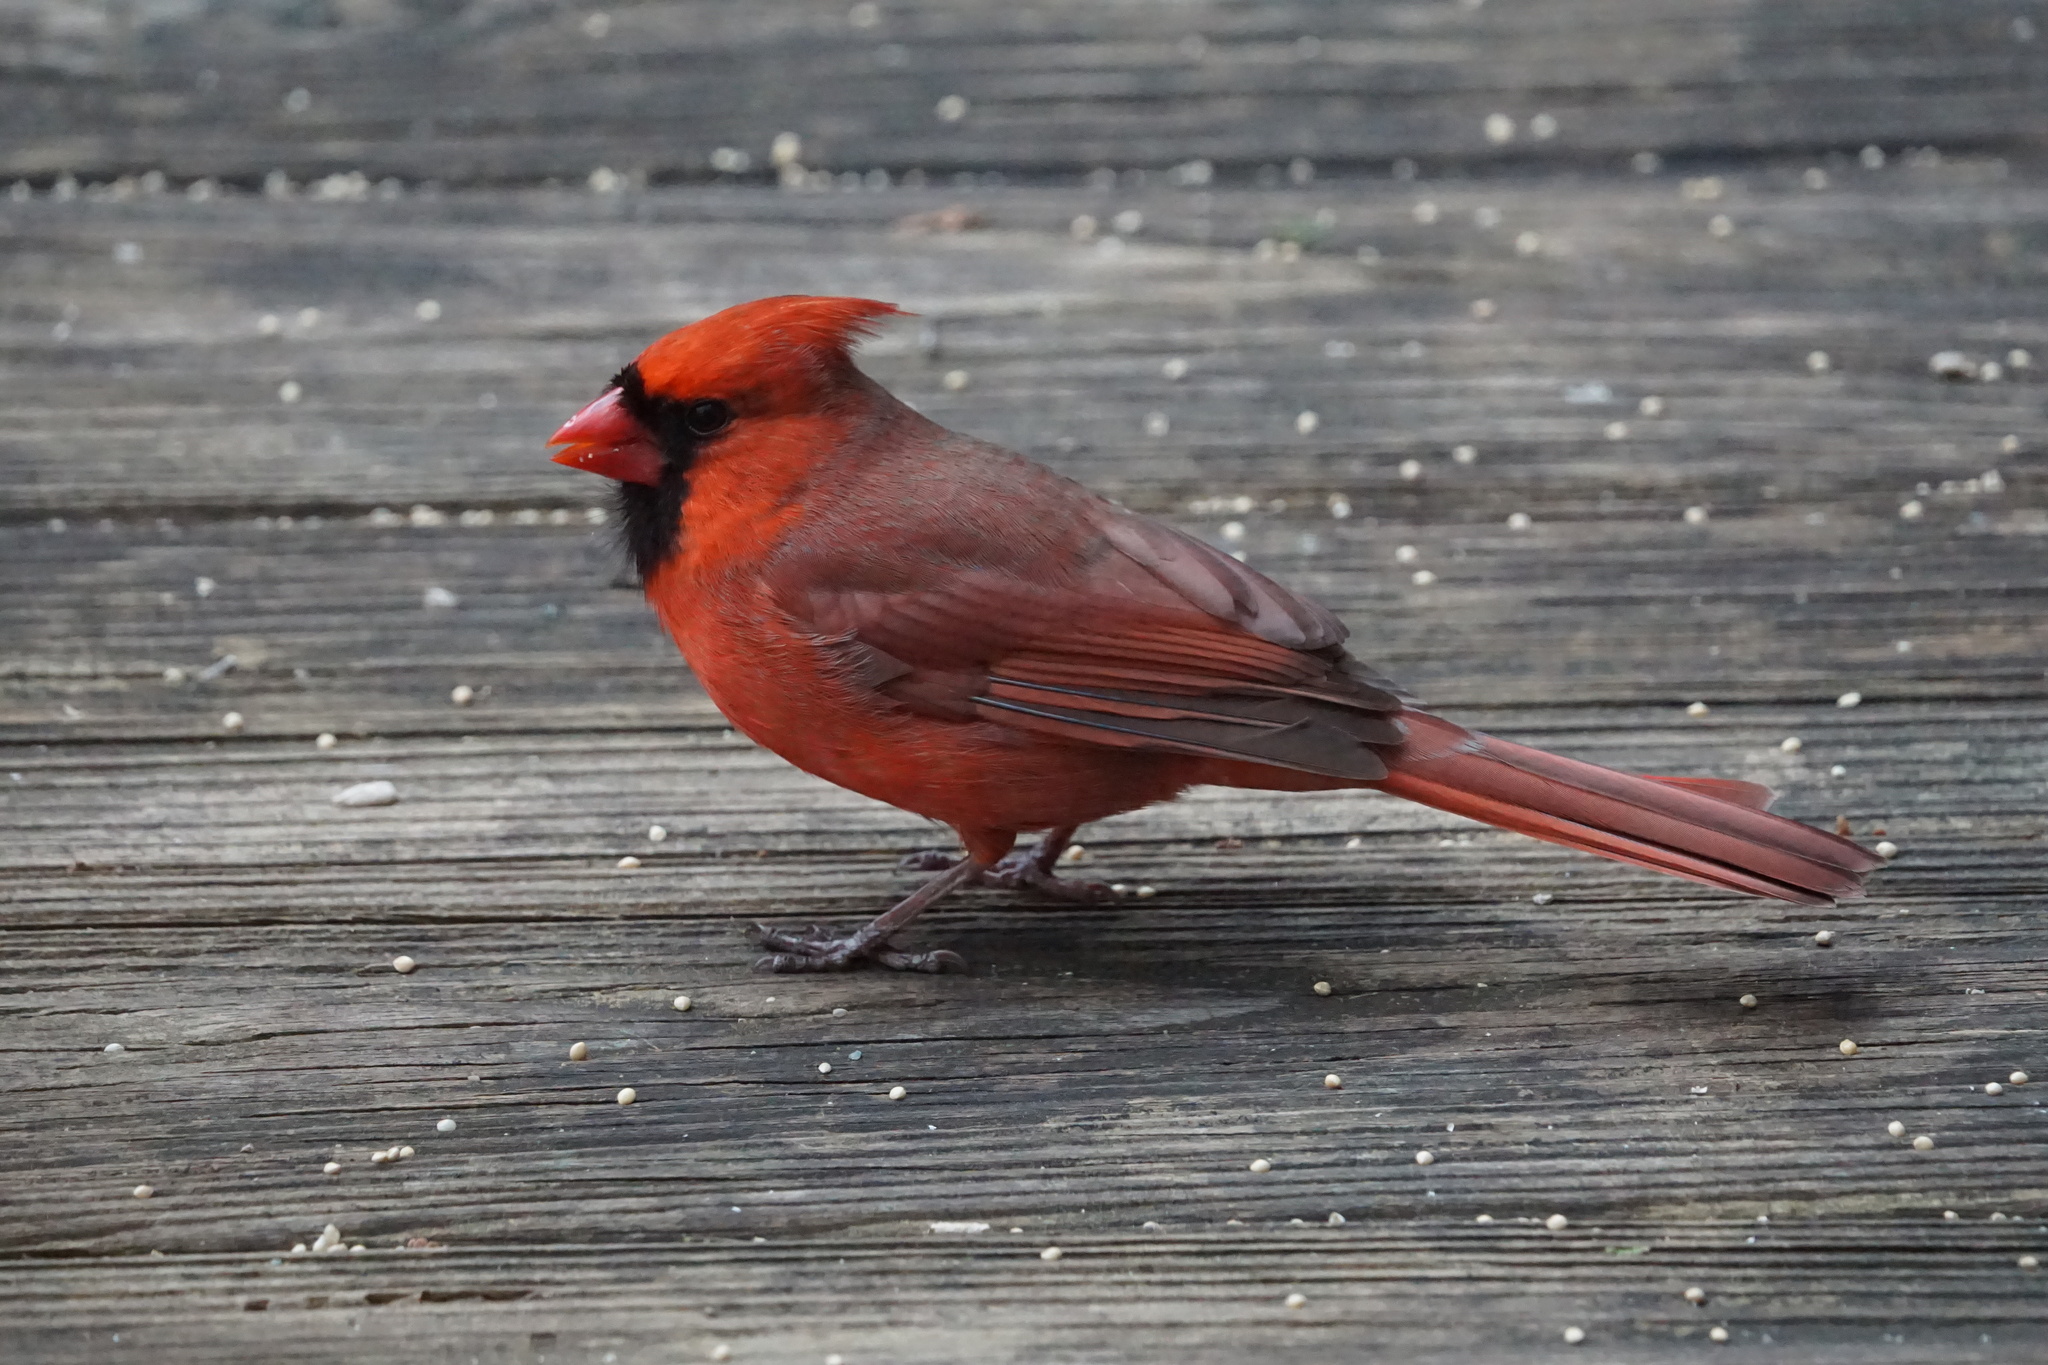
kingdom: Animalia
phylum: Chordata
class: Aves
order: Passeriformes
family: Cardinalidae
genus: Cardinalis
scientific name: Cardinalis cardinalis
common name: Northern cardinal
